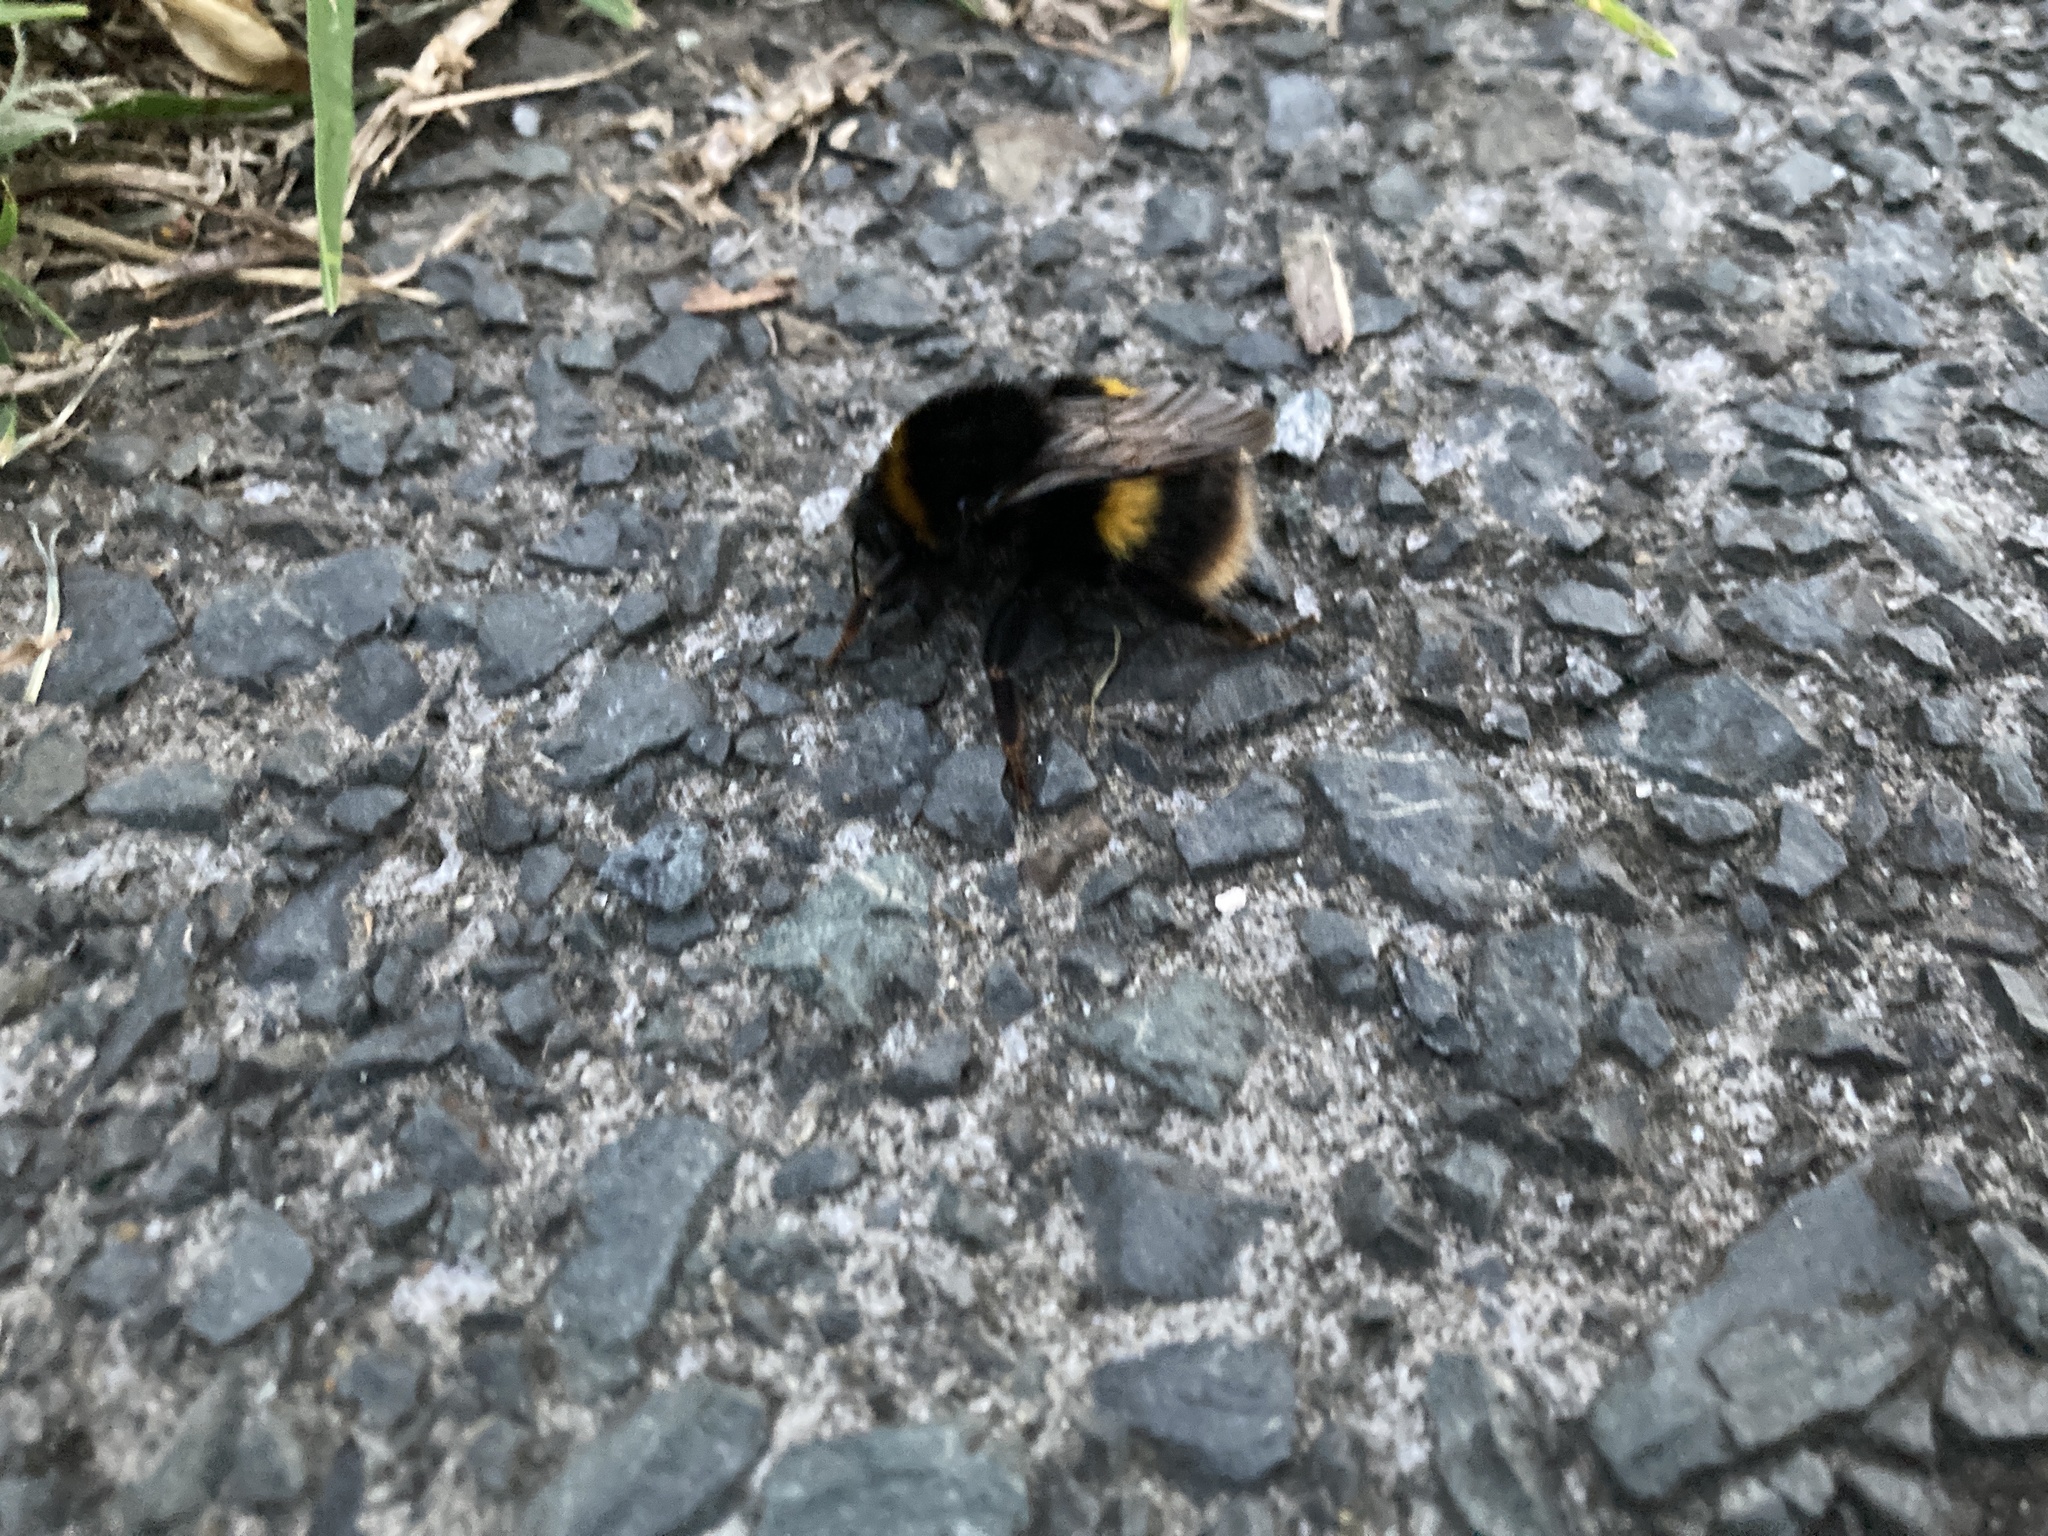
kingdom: Animalia
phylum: Arthropoda
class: Insecta
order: Hymenoptera
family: Apidae
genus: Bombus
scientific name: Bombus terrestris
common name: Buff-tailed bumblebee
